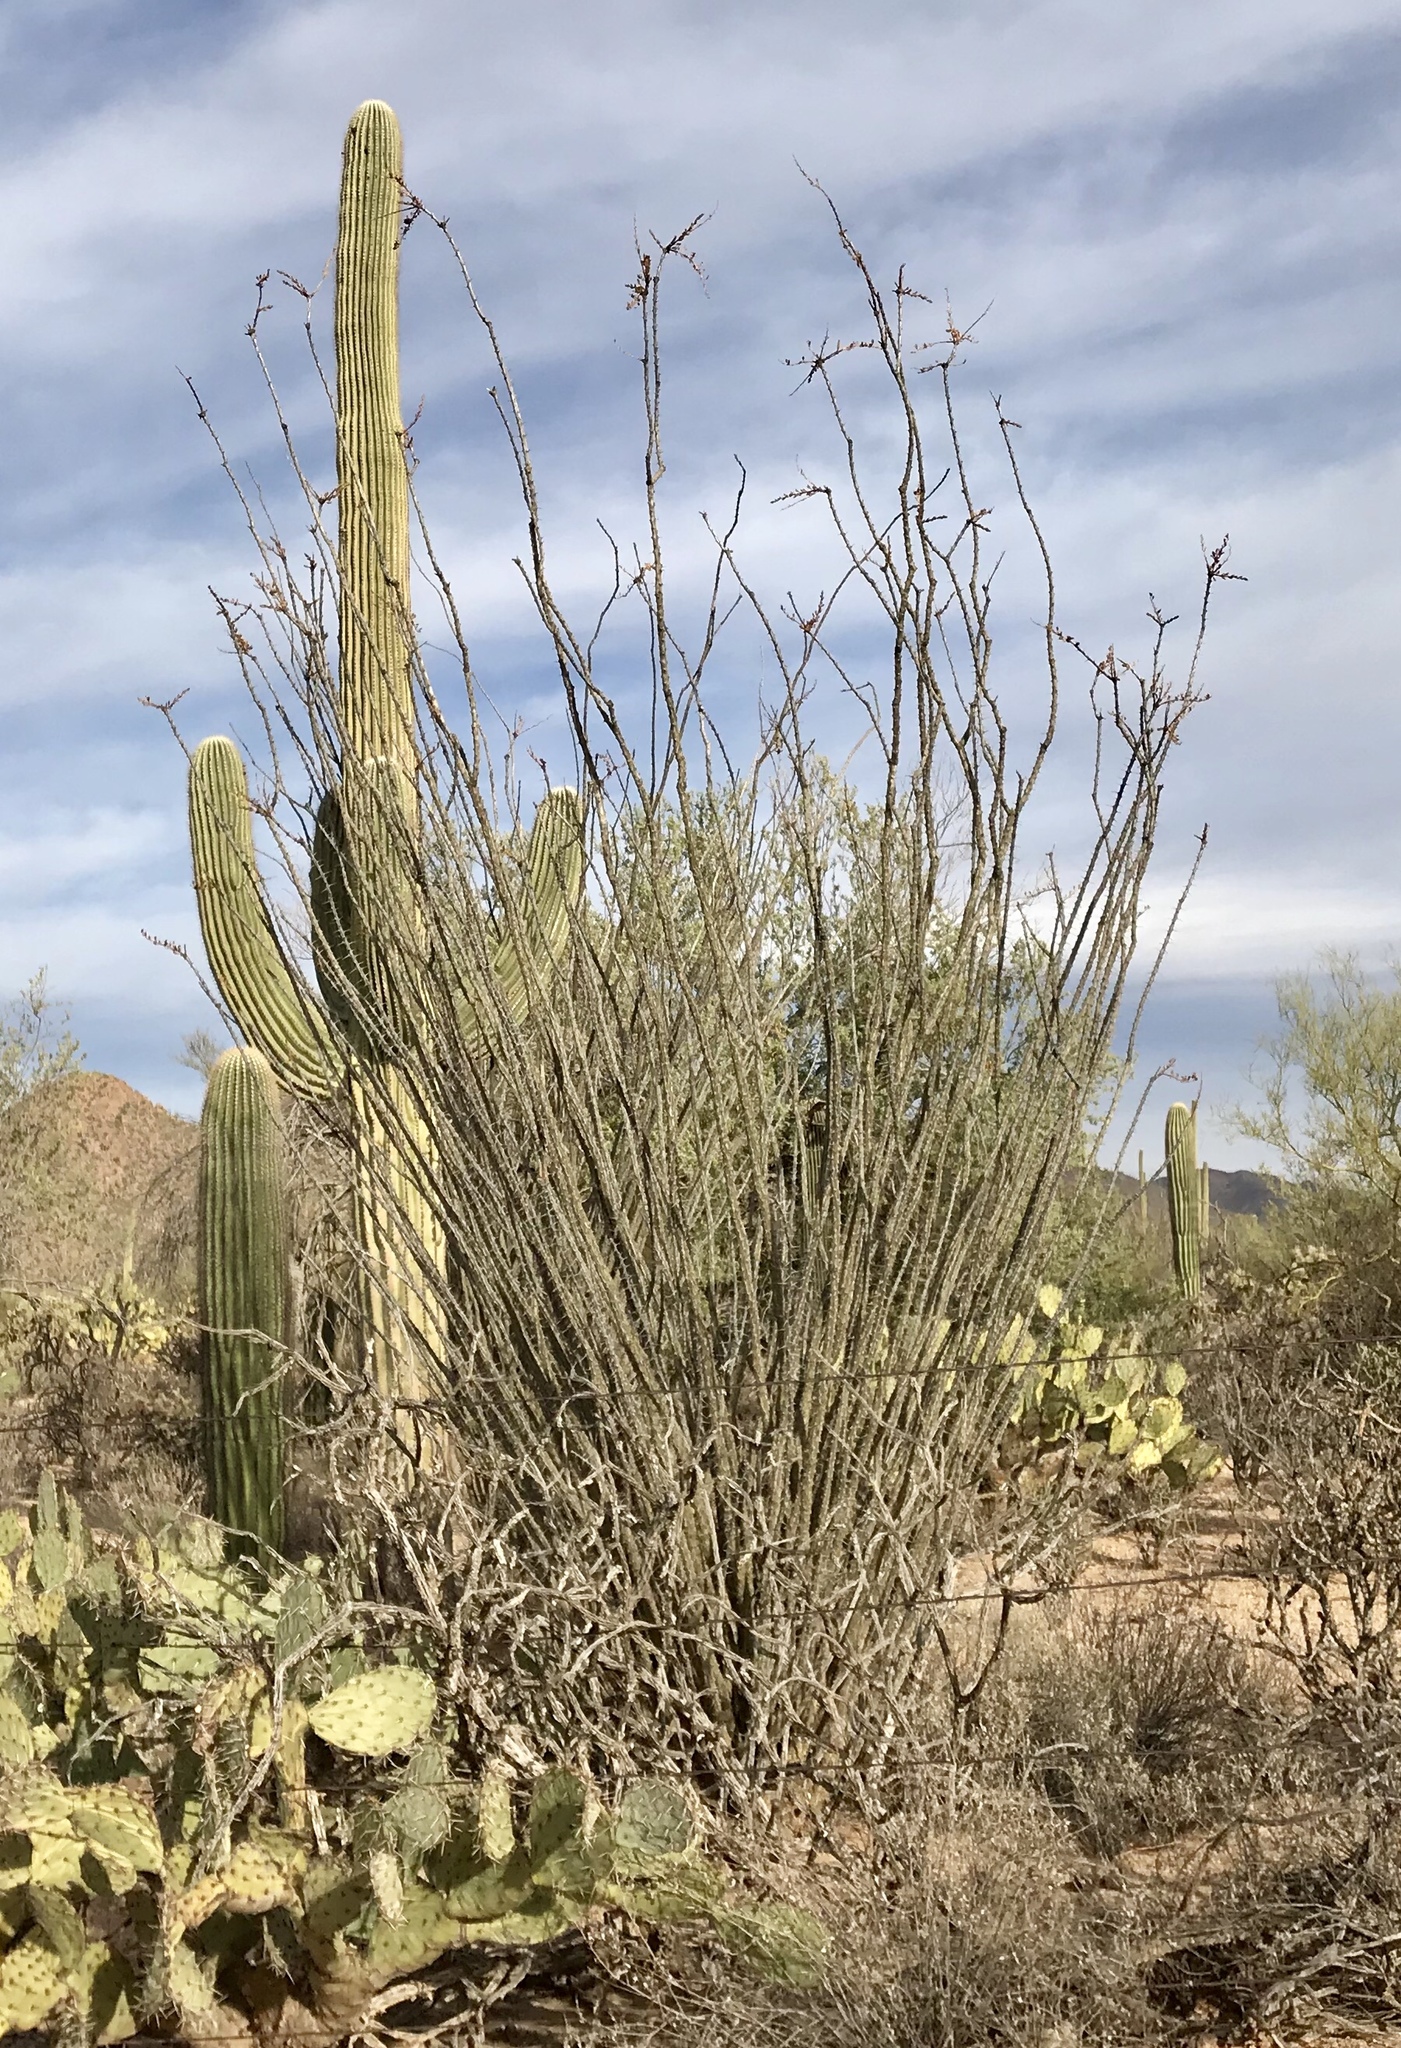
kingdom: Plantae
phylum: Tracheophyta
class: Magnoliopsida
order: Ericales
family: Fouquieriaceae
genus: Fouquieria
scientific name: Fouquieria splendens
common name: Vine-cactus
